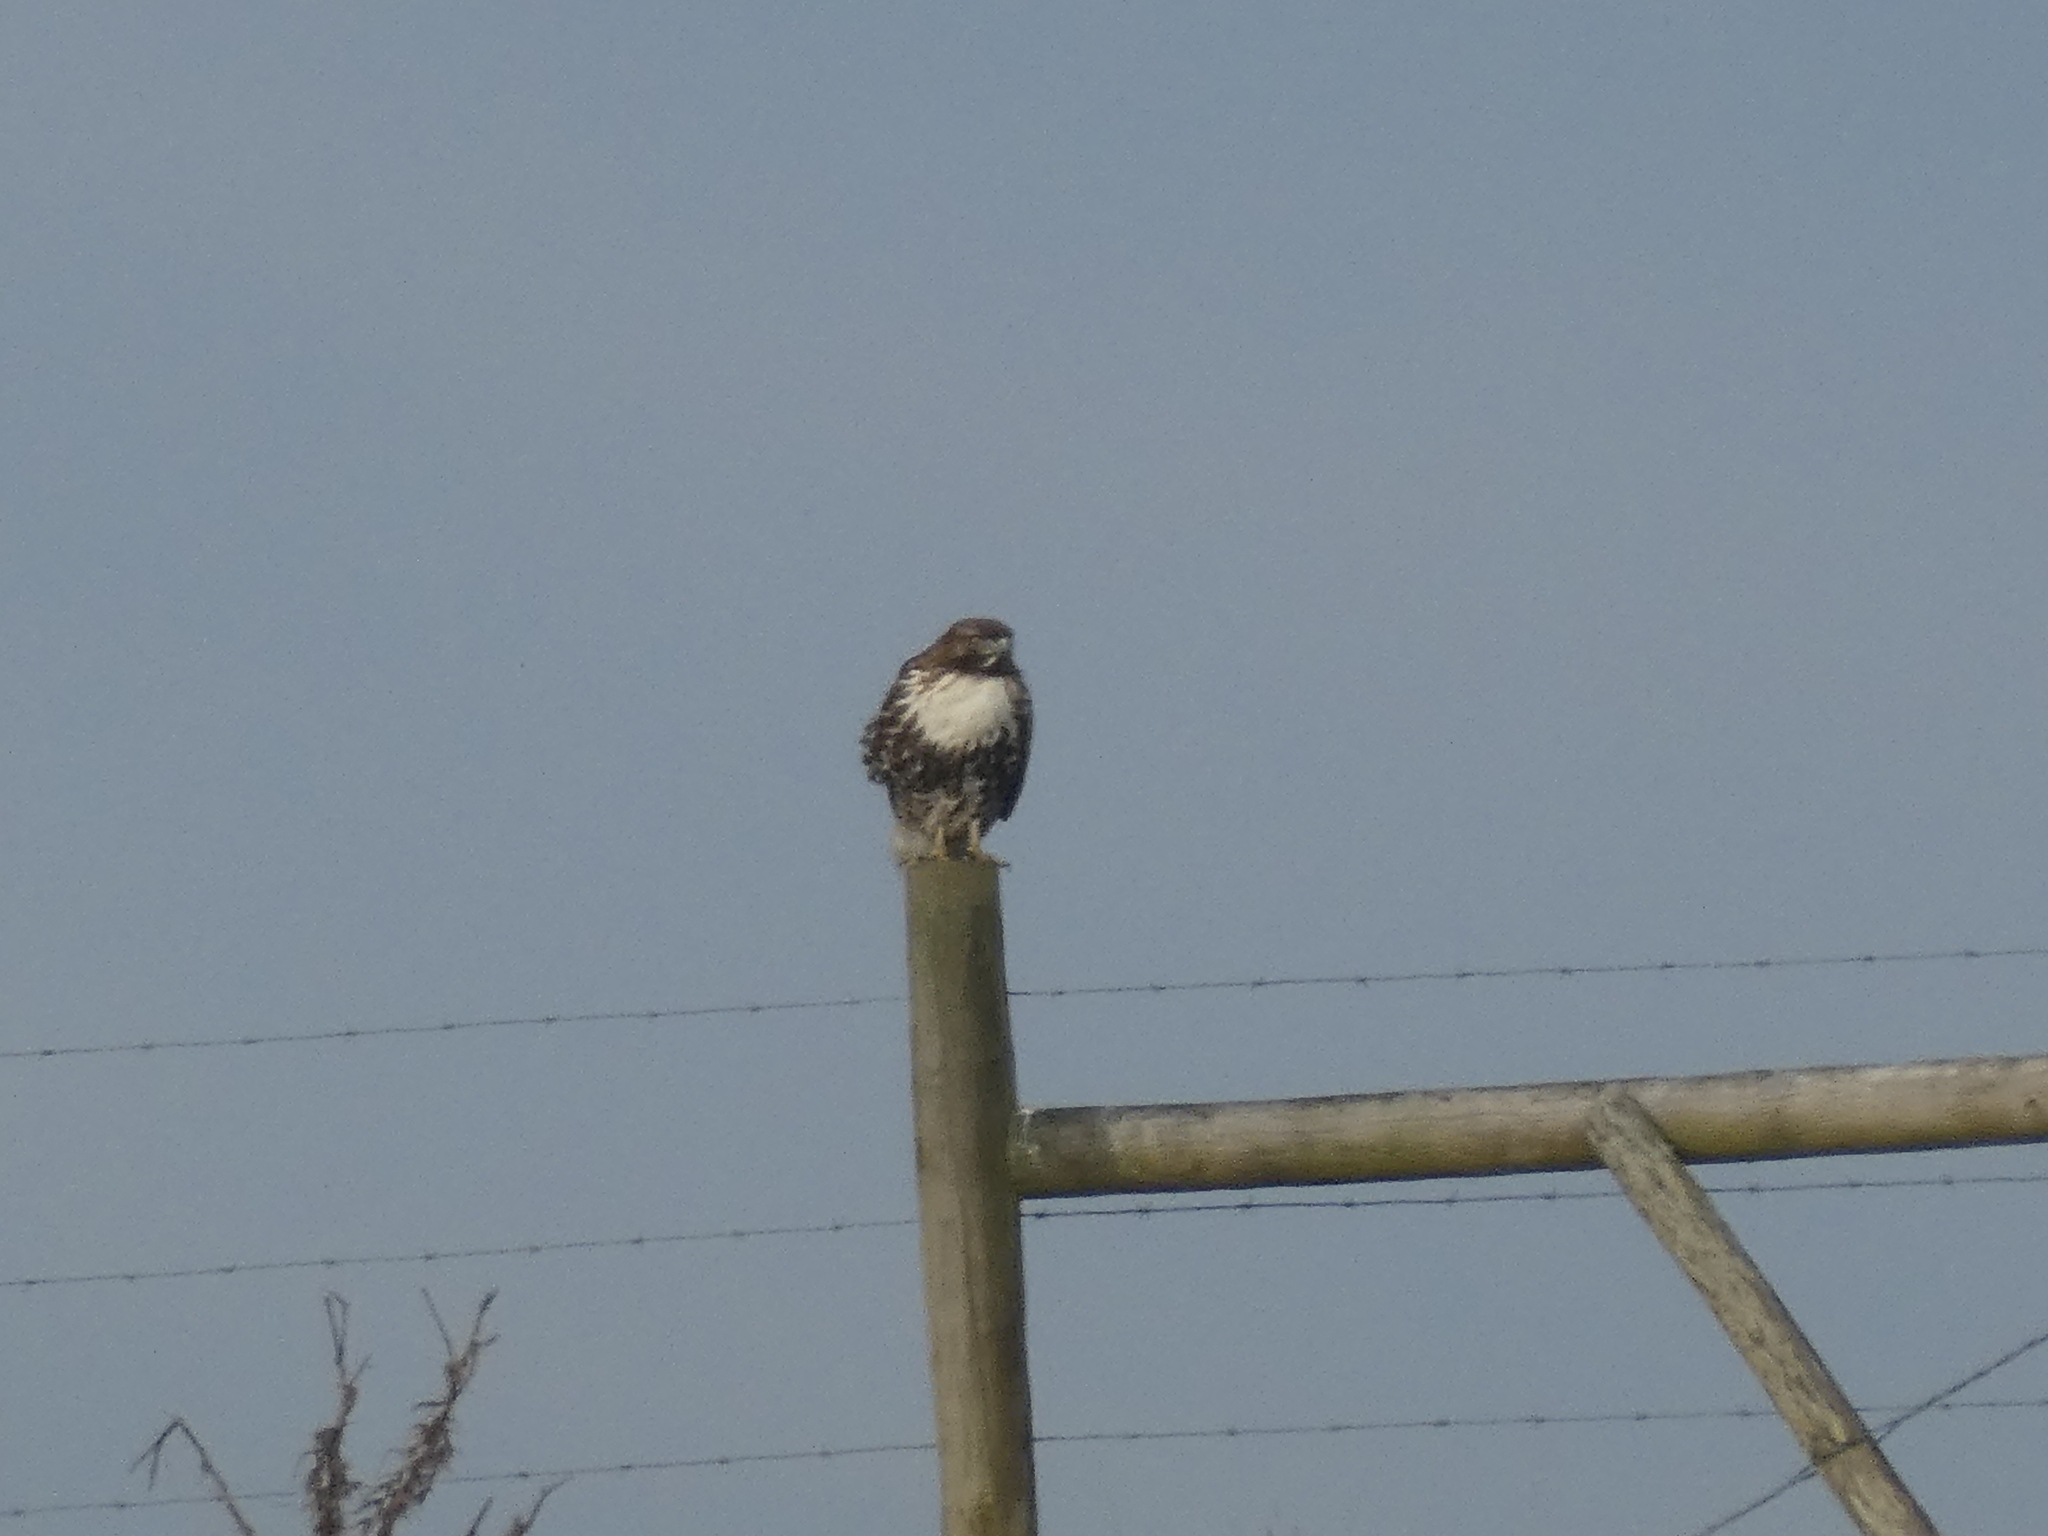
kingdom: Animalia
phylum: Chordata
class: Aves
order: Accipitriformes
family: Accipitridae
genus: Buteo
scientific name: Buteo jamaicensis
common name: Red-tailed hawk
